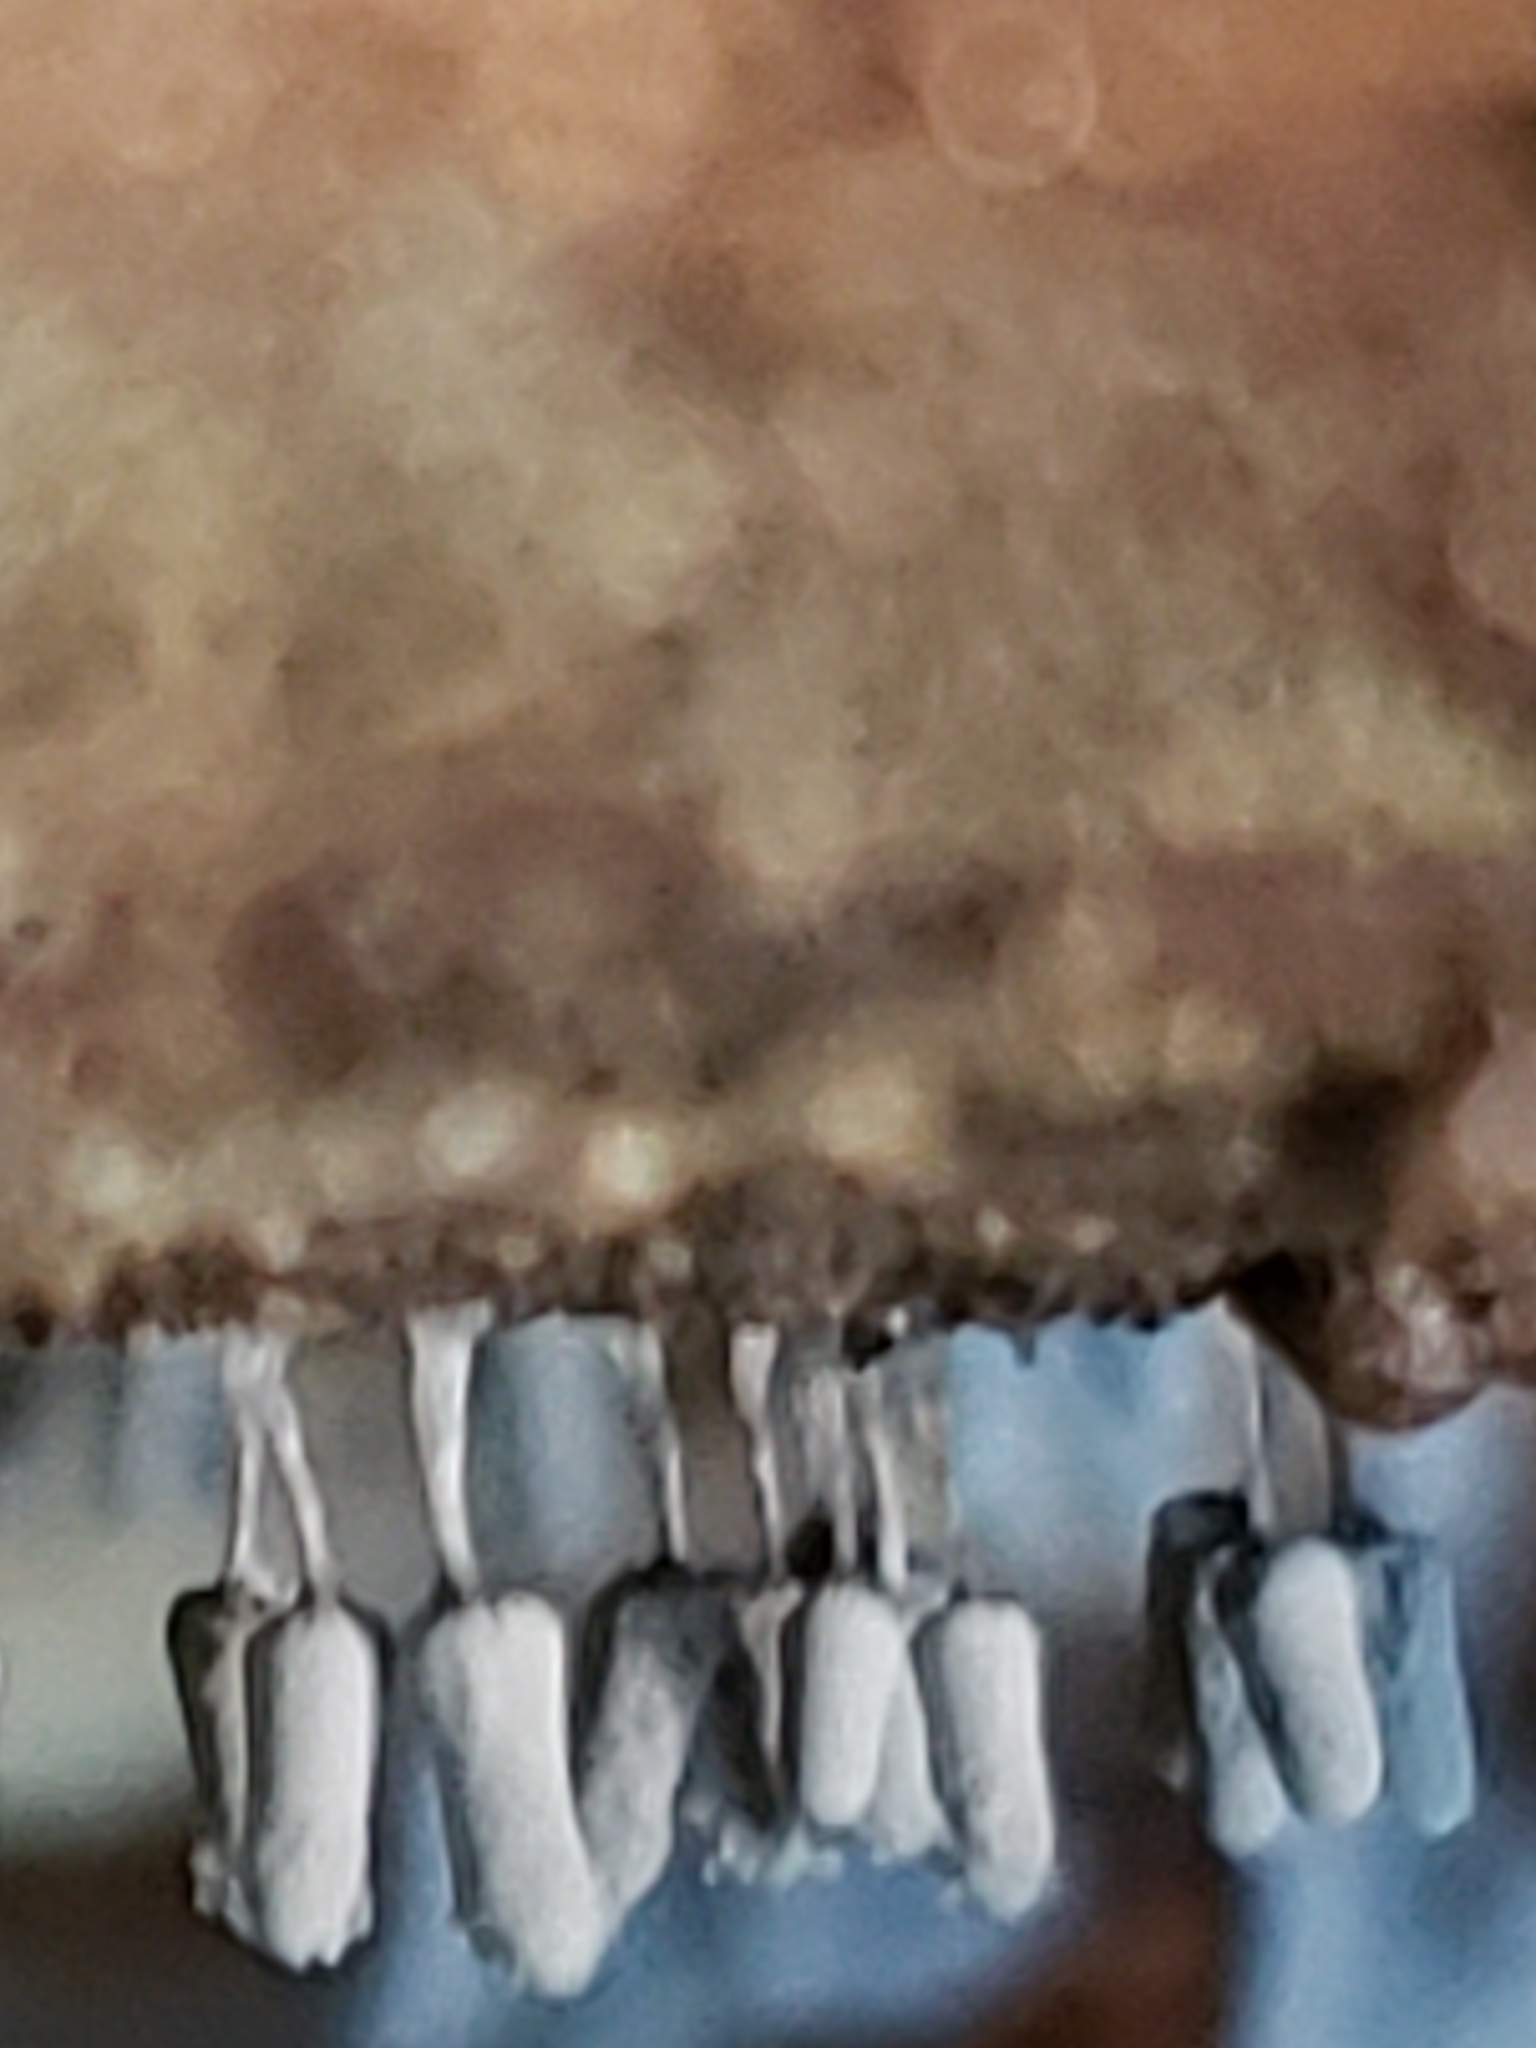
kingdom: Protozoa
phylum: Mycetozoa
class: Myxomycetes
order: Trichiales
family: Arcyriaceae
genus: Arcyria
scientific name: Arcyria cinerea
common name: White carnival candy slime mold
